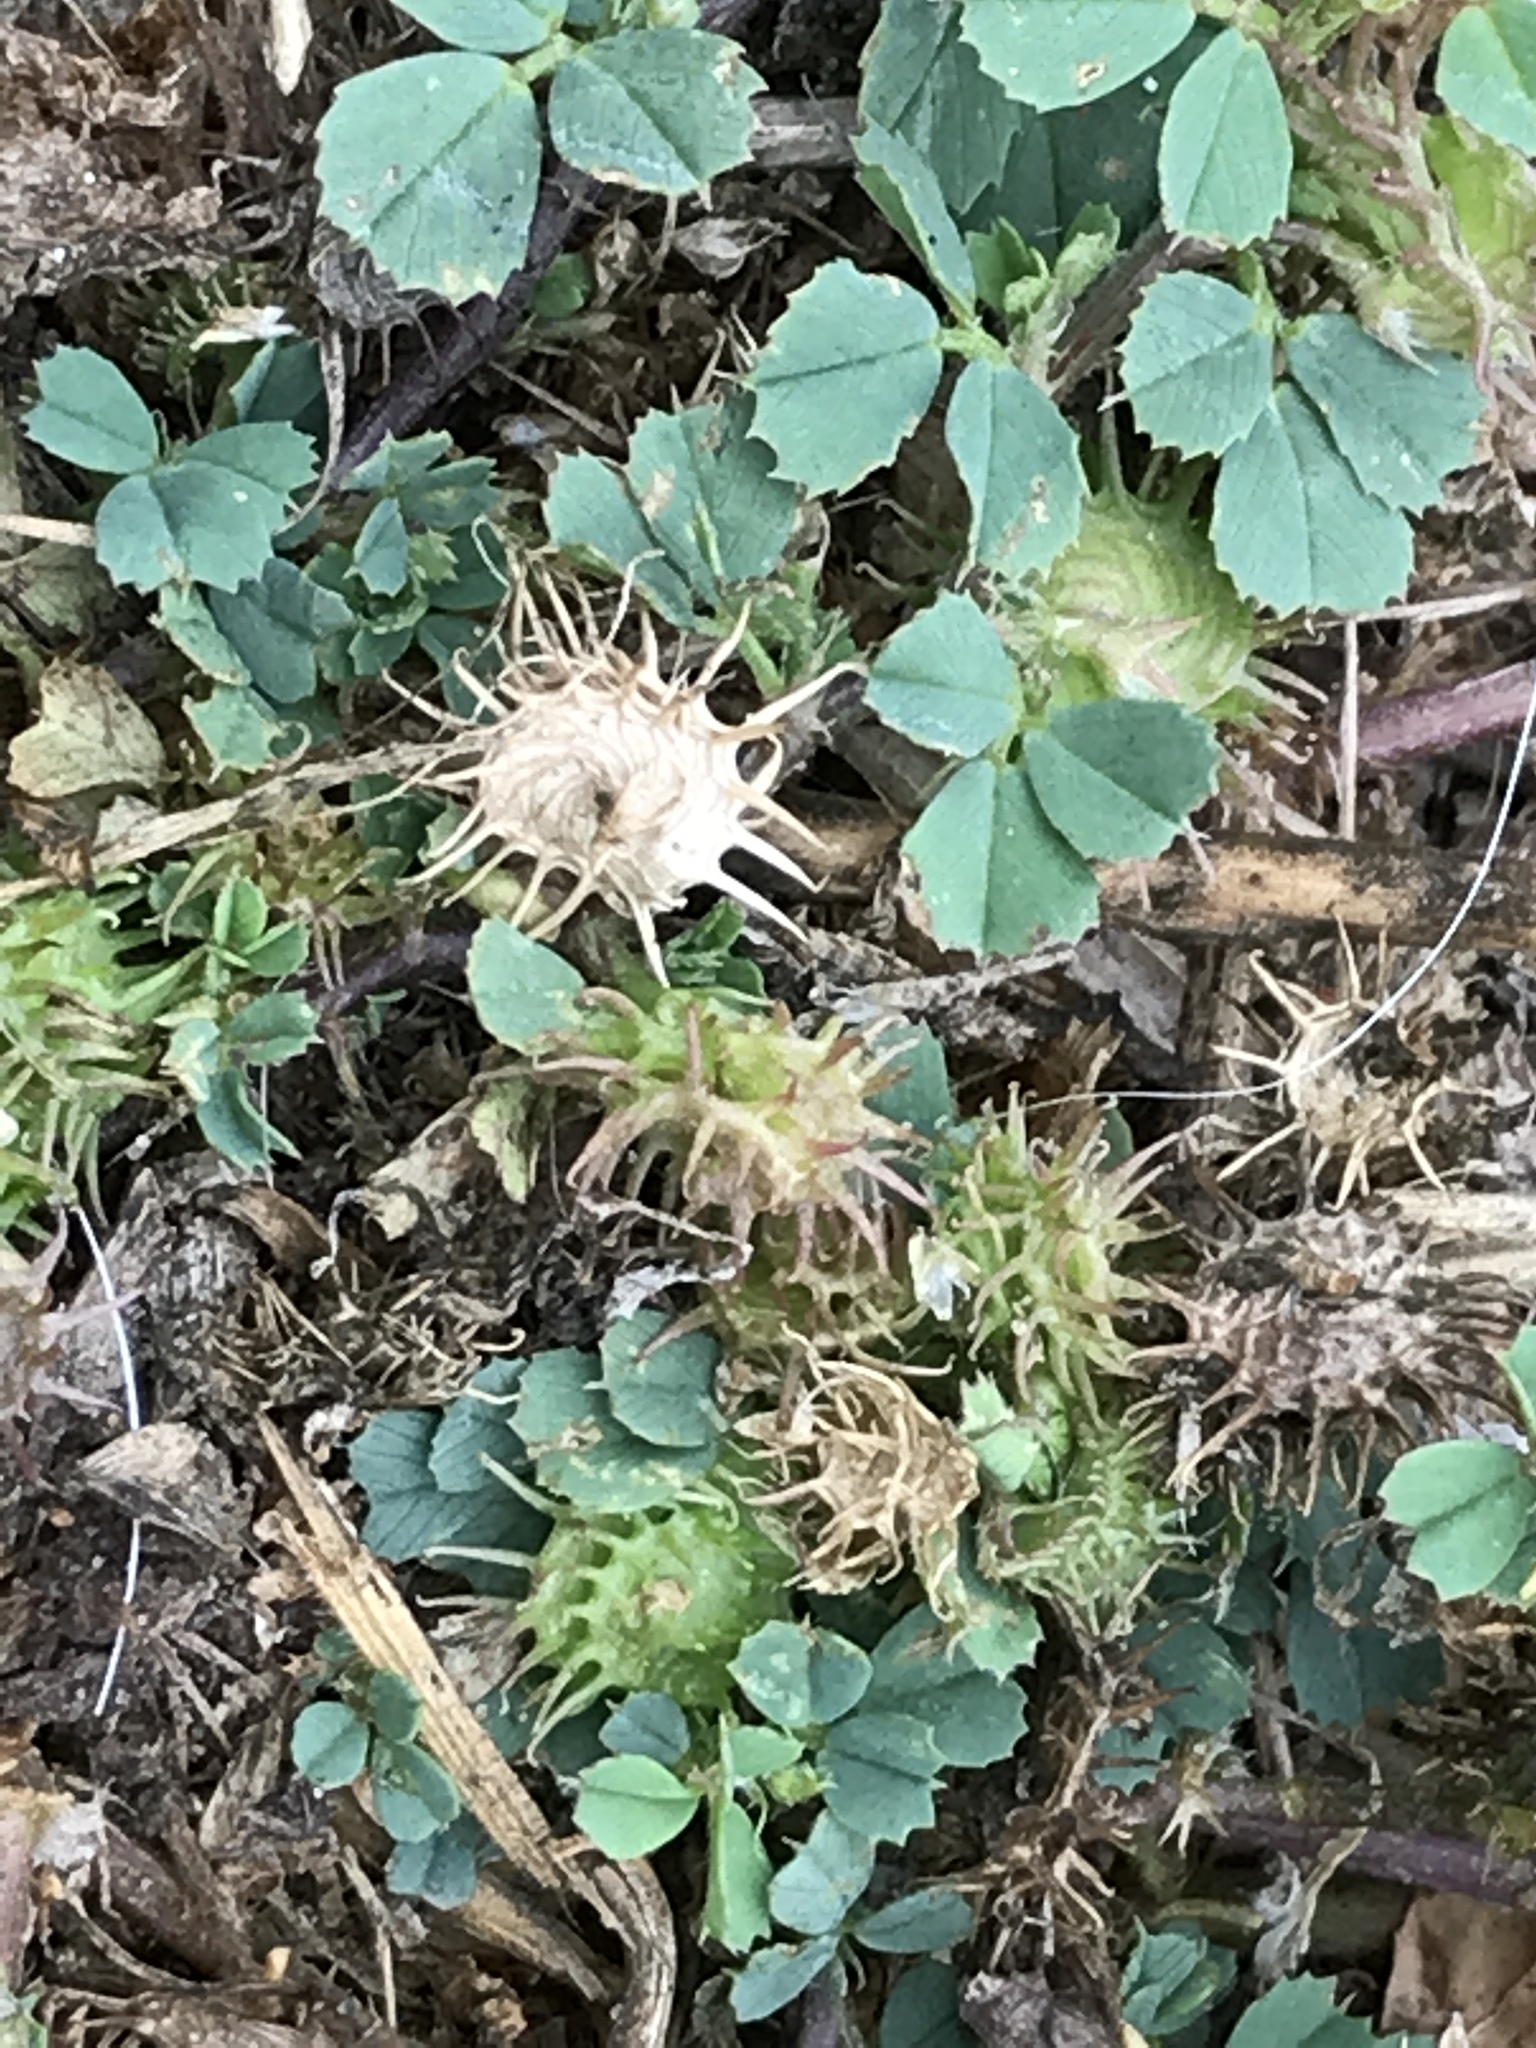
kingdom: Plantae
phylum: Tracheophyta
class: Magnoliopsida
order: Fabales
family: Fabaceae
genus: Medicago
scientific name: Medicago polymorpha
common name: Burclover
